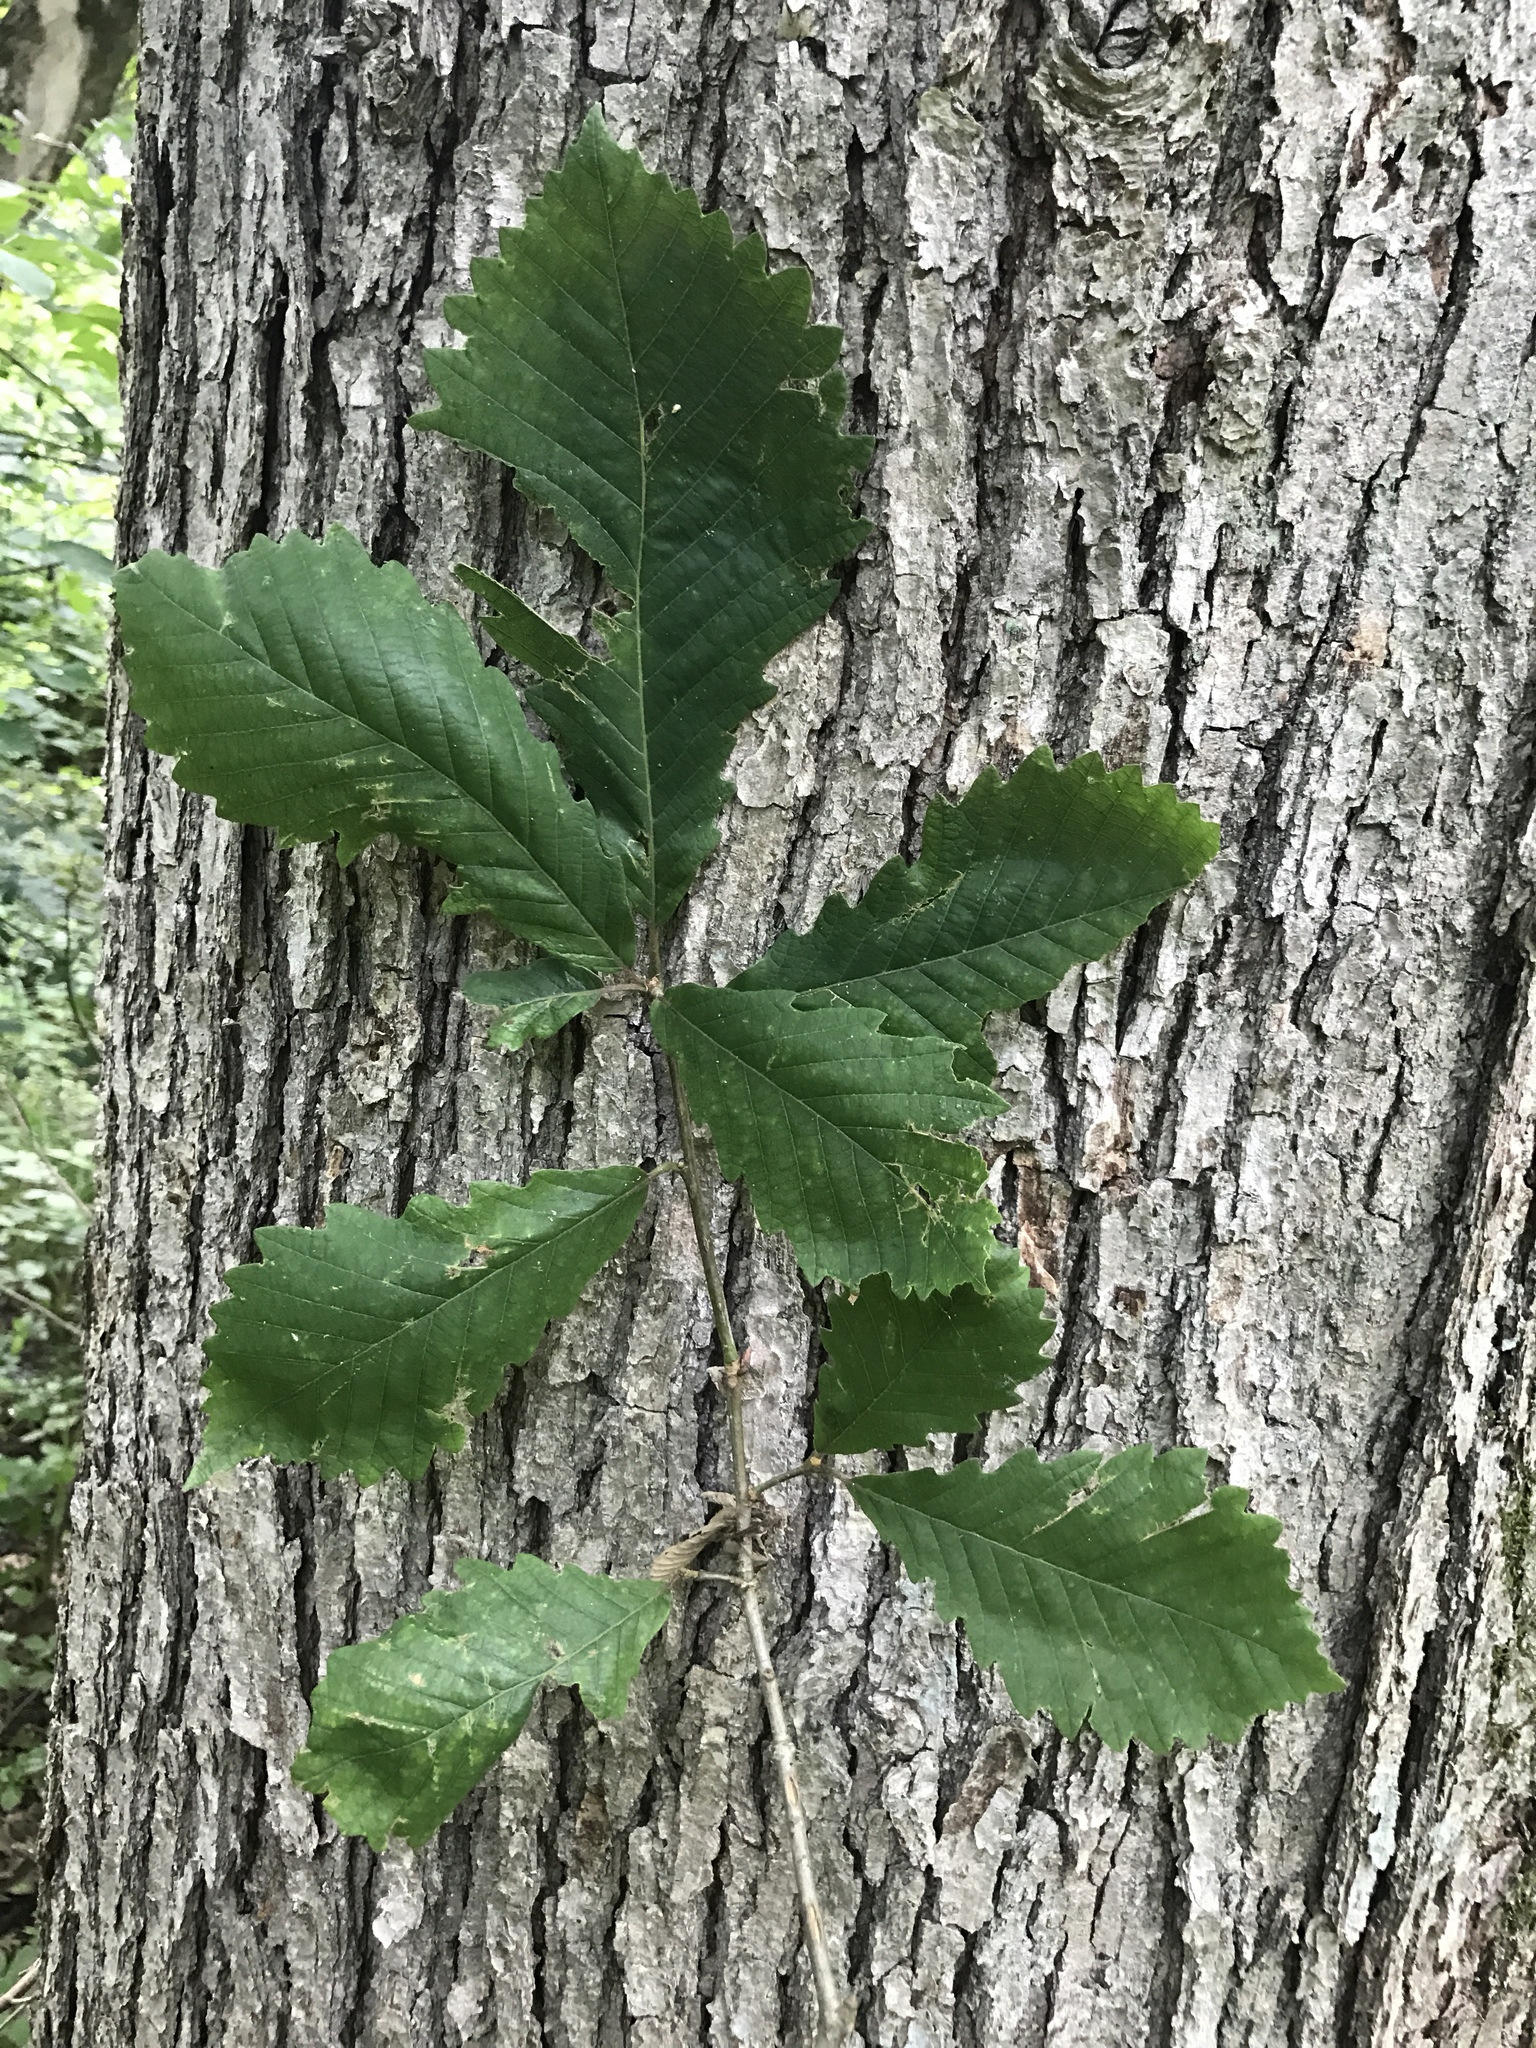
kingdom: Plantae
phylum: Tracheophyta
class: Magnoliopsida
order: Fagales
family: Fagaceae
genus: Quercus
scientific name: Quercus michauxii
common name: Swamp chestnut oak
